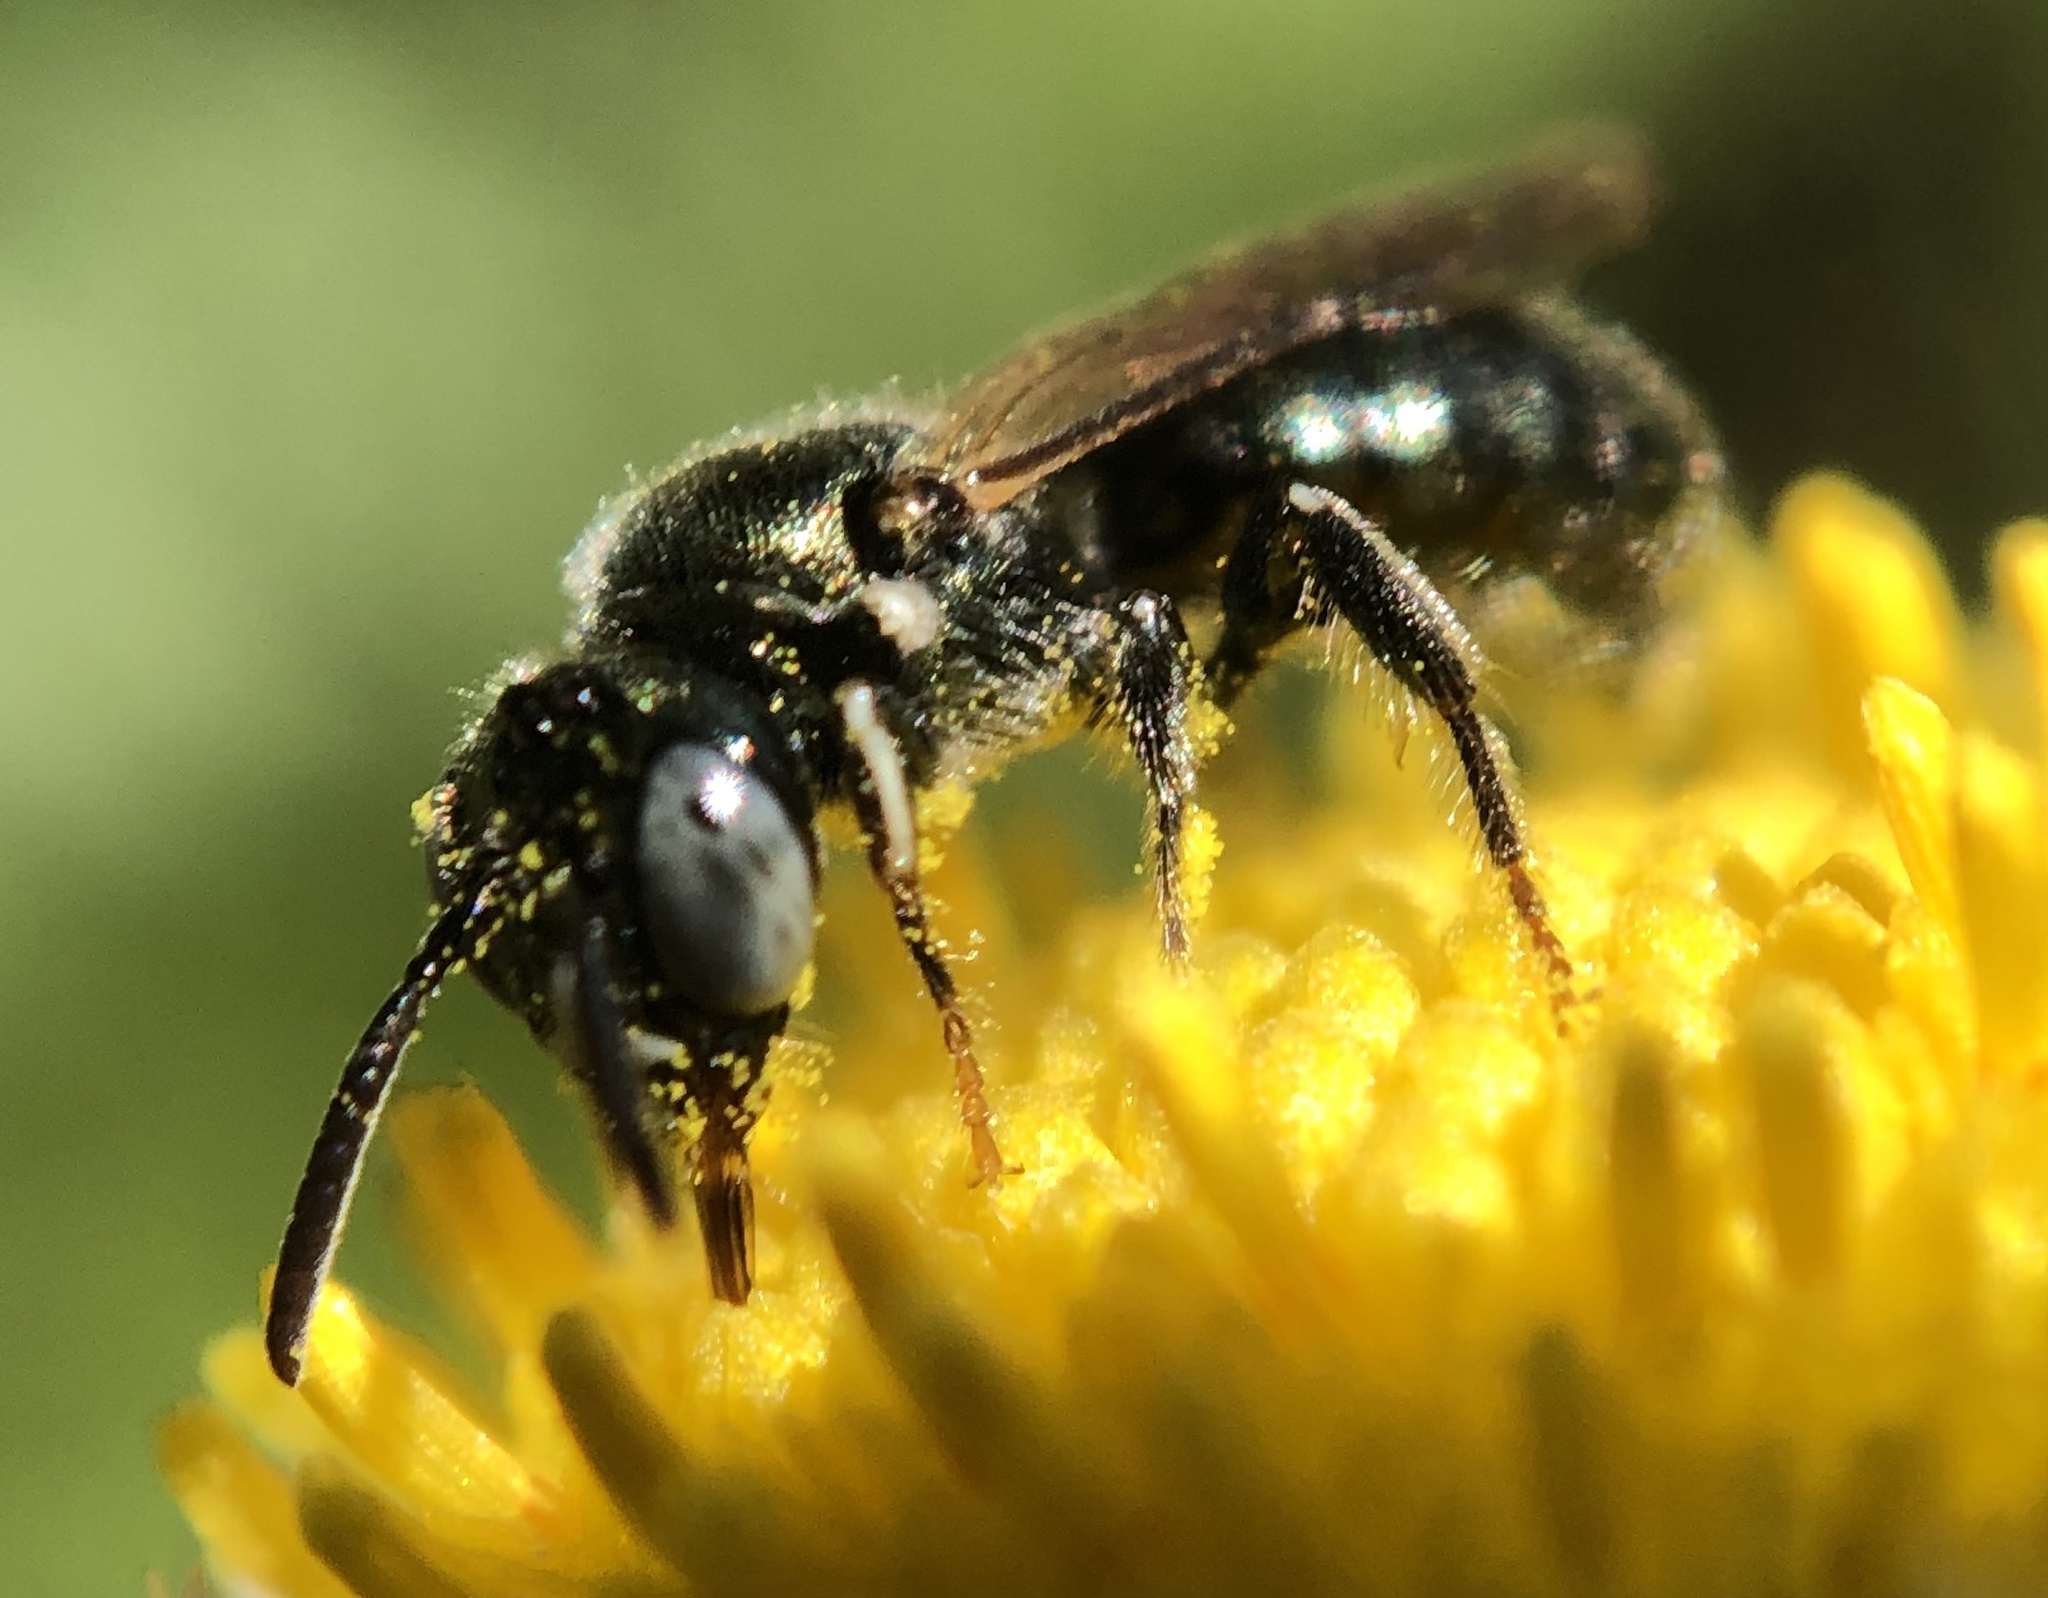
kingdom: Animalia
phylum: Arthropoda
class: Insecta
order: Hymenoptera
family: Apidae
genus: Ceratina
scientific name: Ceratina strenua
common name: Nimble carpenter bee
